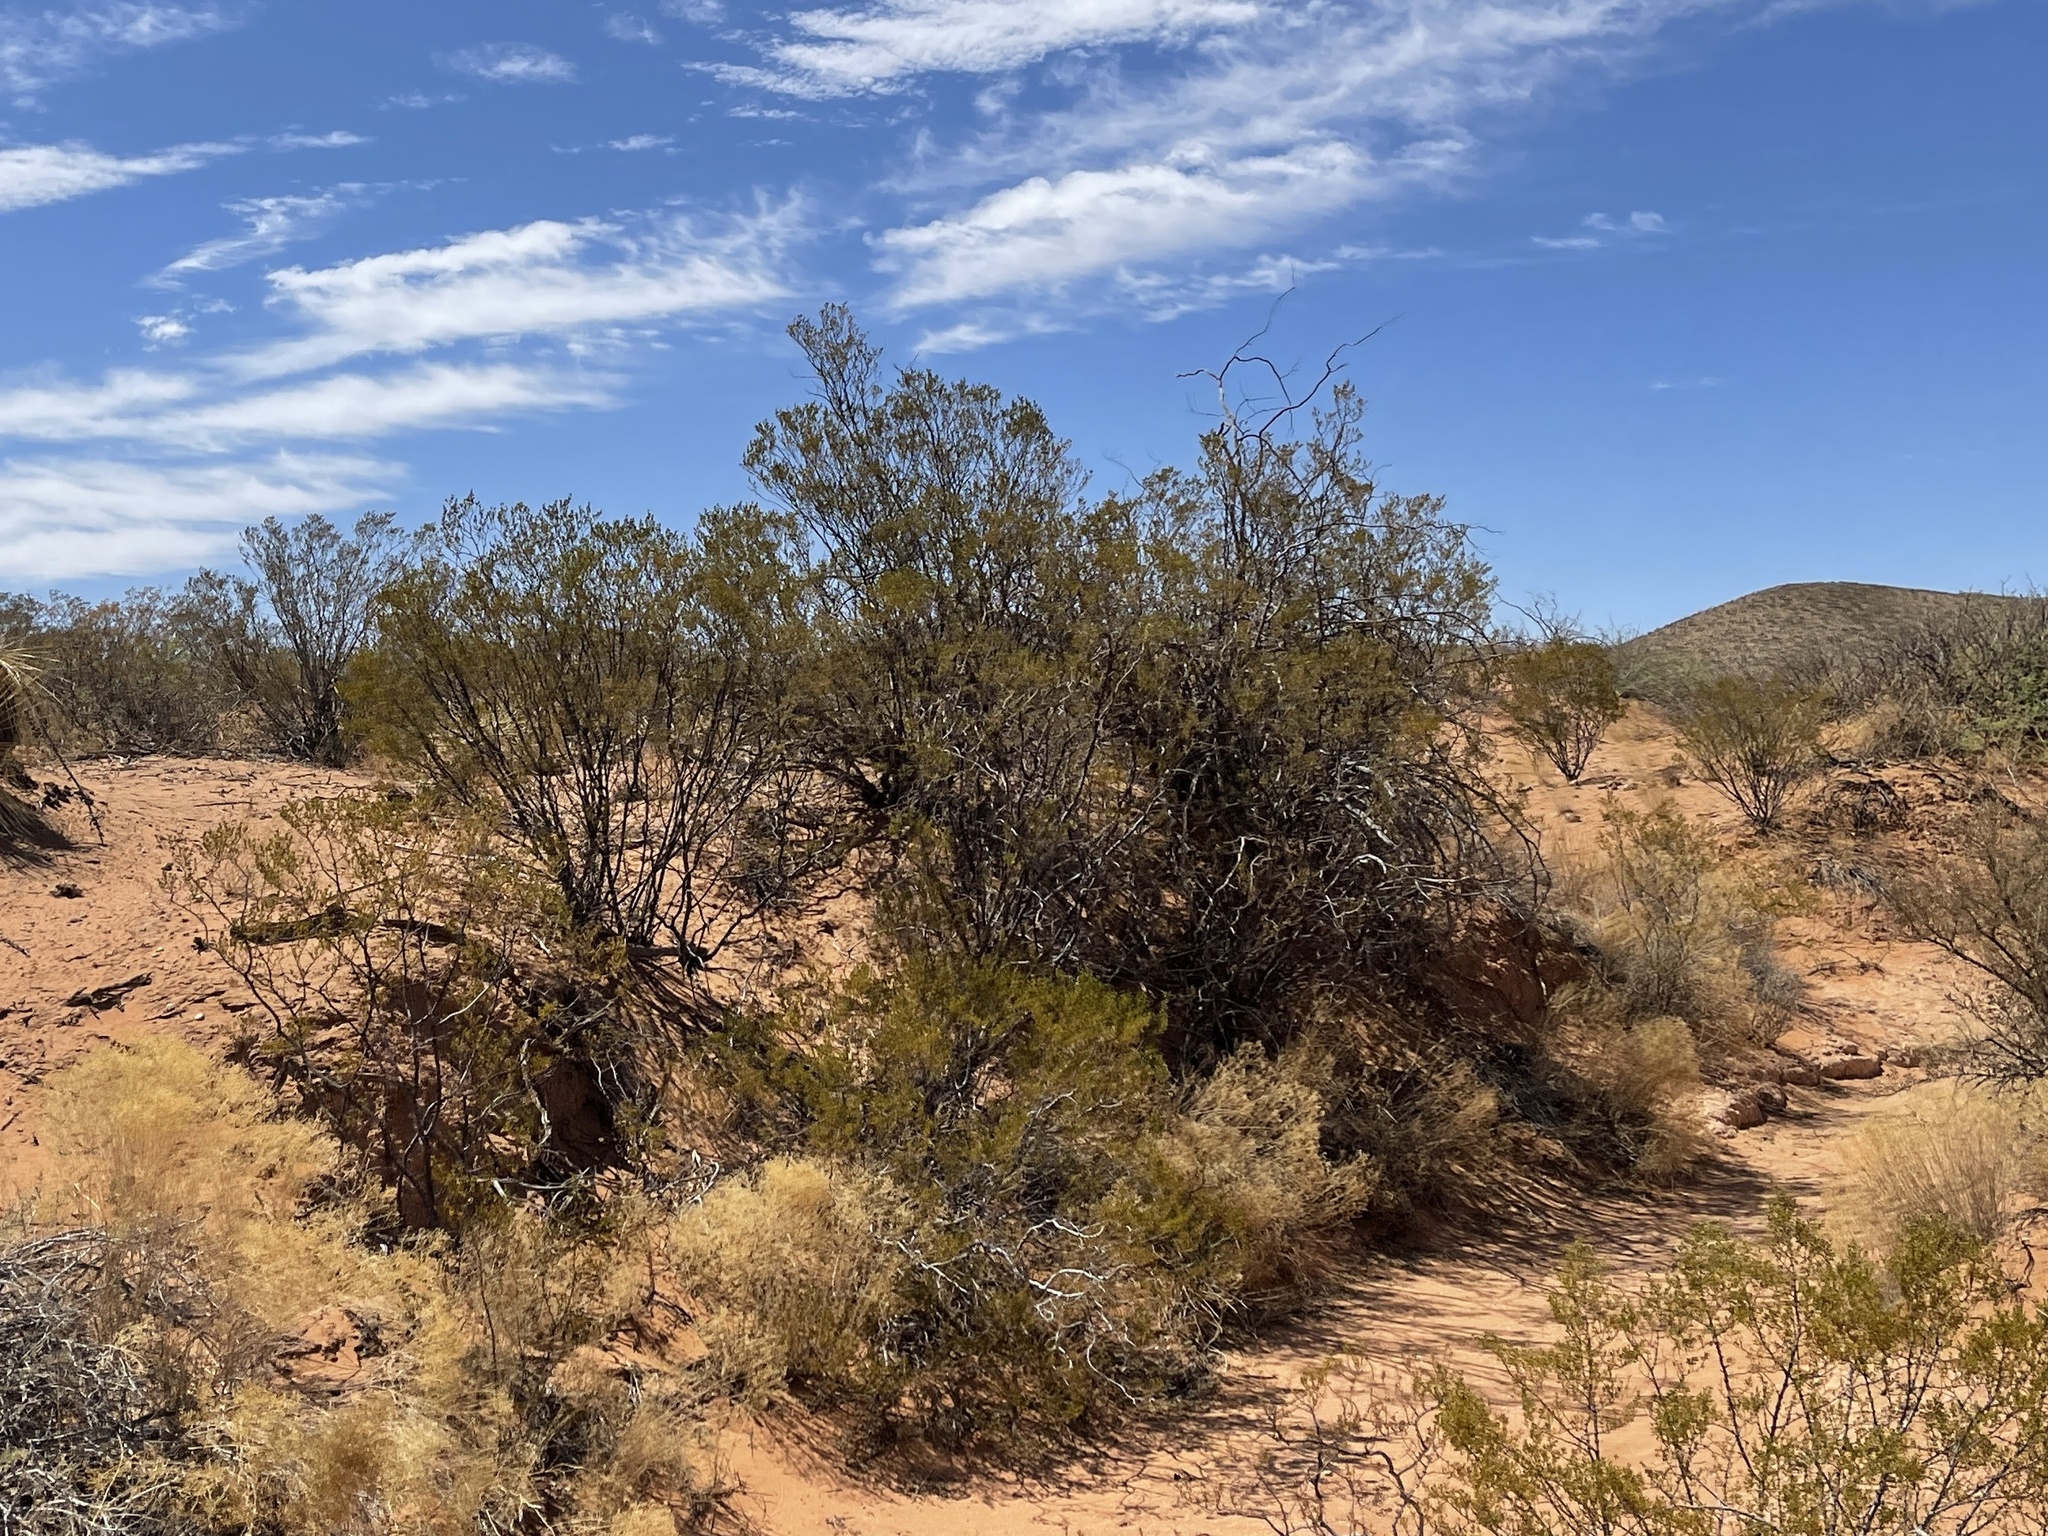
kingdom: Plantae
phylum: Tracheophyta
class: Magnoliopsida
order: Zygophyllales
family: Zygophyllaceae
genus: Larrea
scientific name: Larrea tridentata
